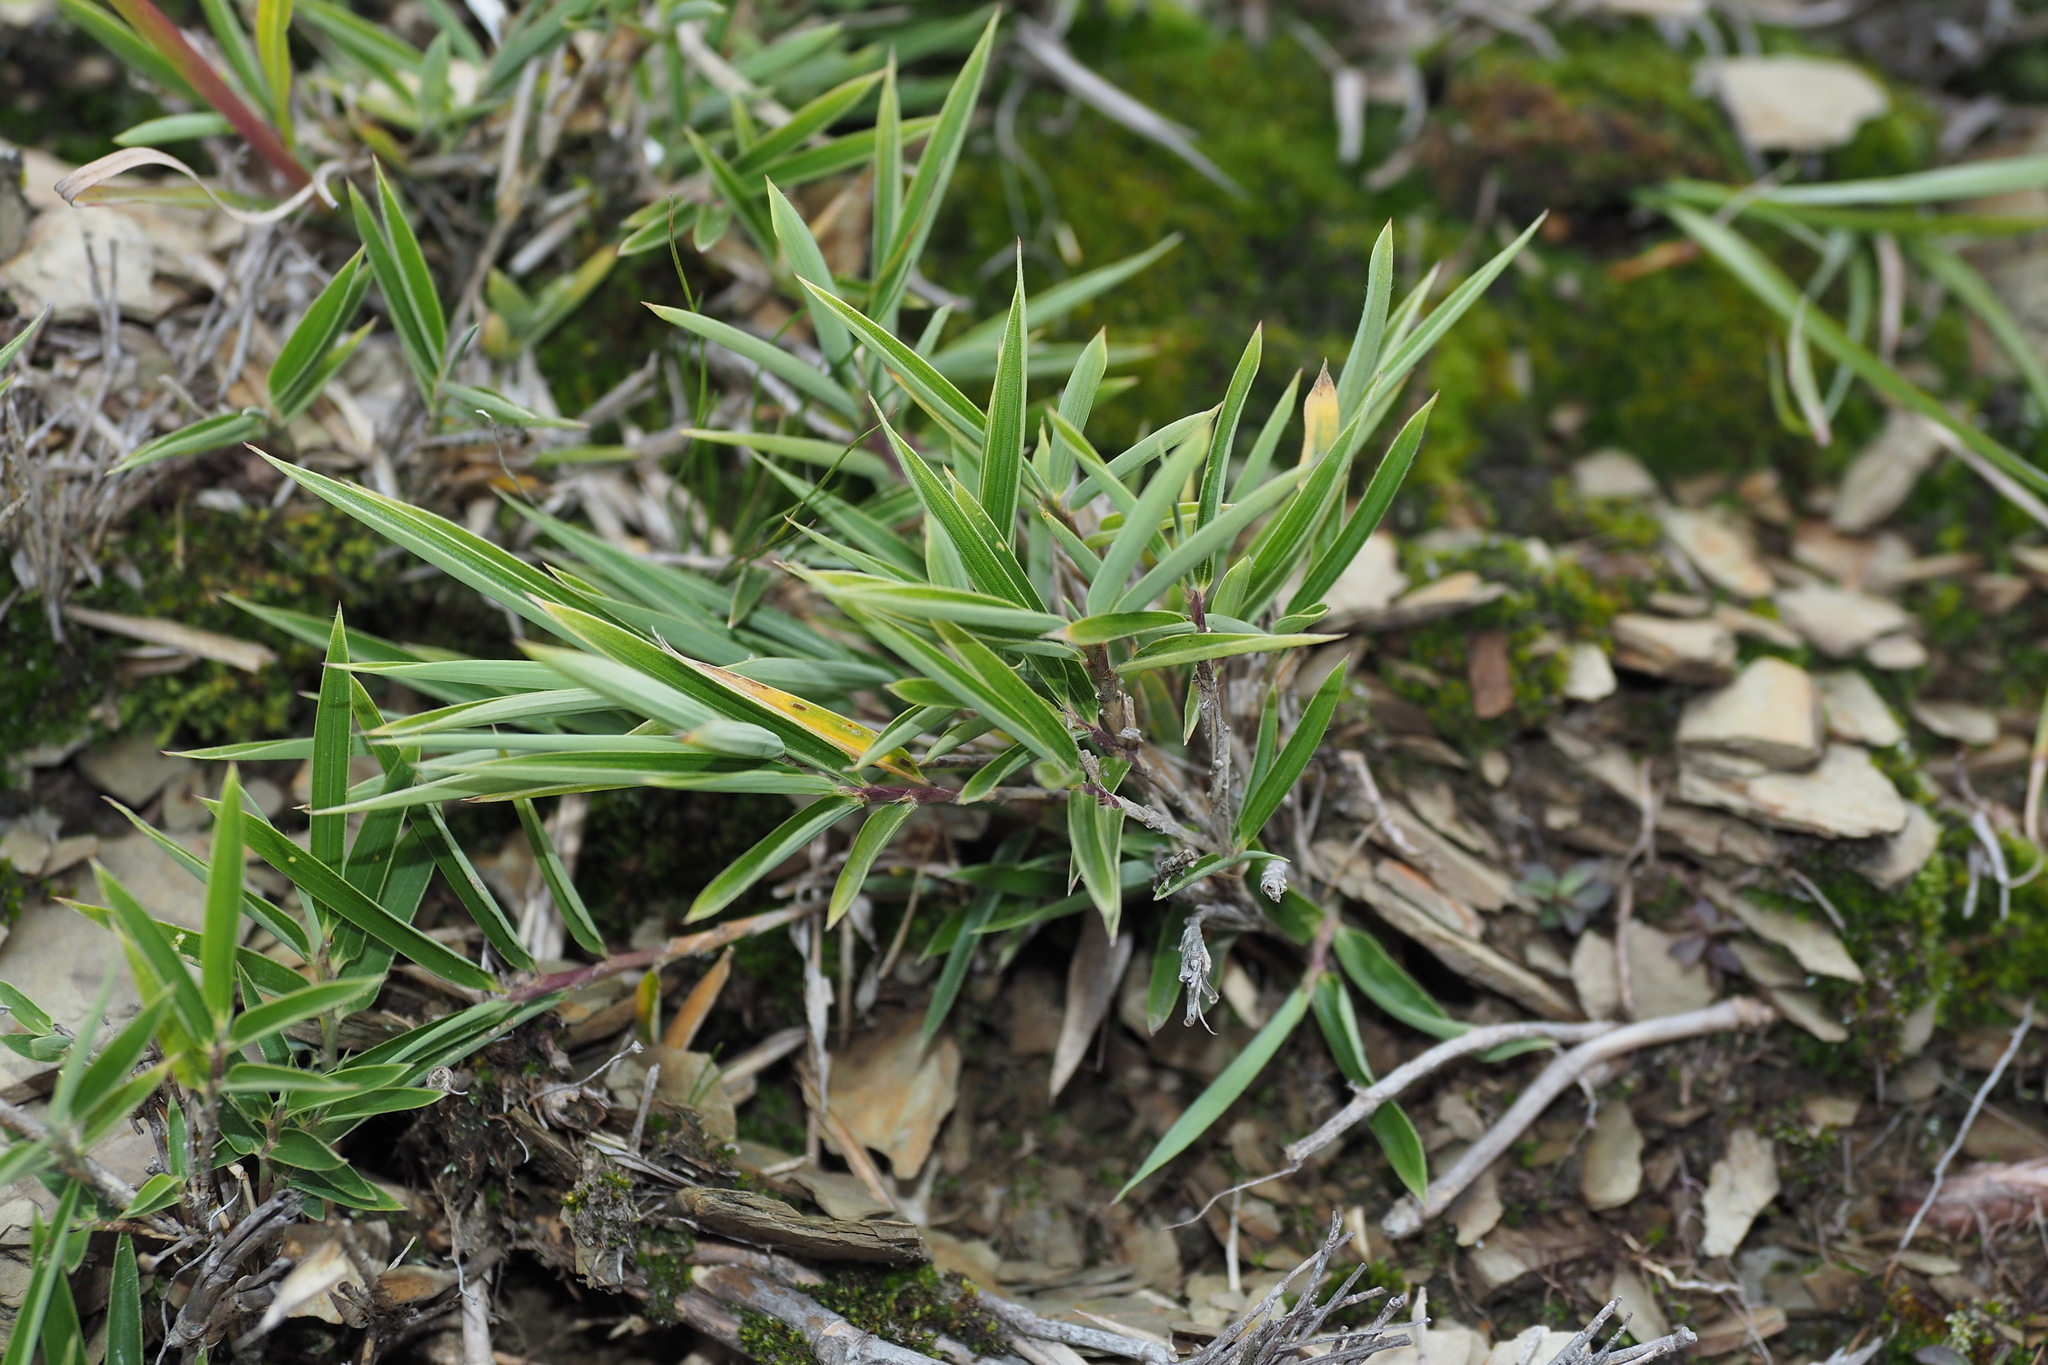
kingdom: Plantae
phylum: Tracheophyta
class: Liliopsida
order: Poales
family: Poaceae
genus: Yushania
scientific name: Yushania niitakayamensis
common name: Yushan cane
